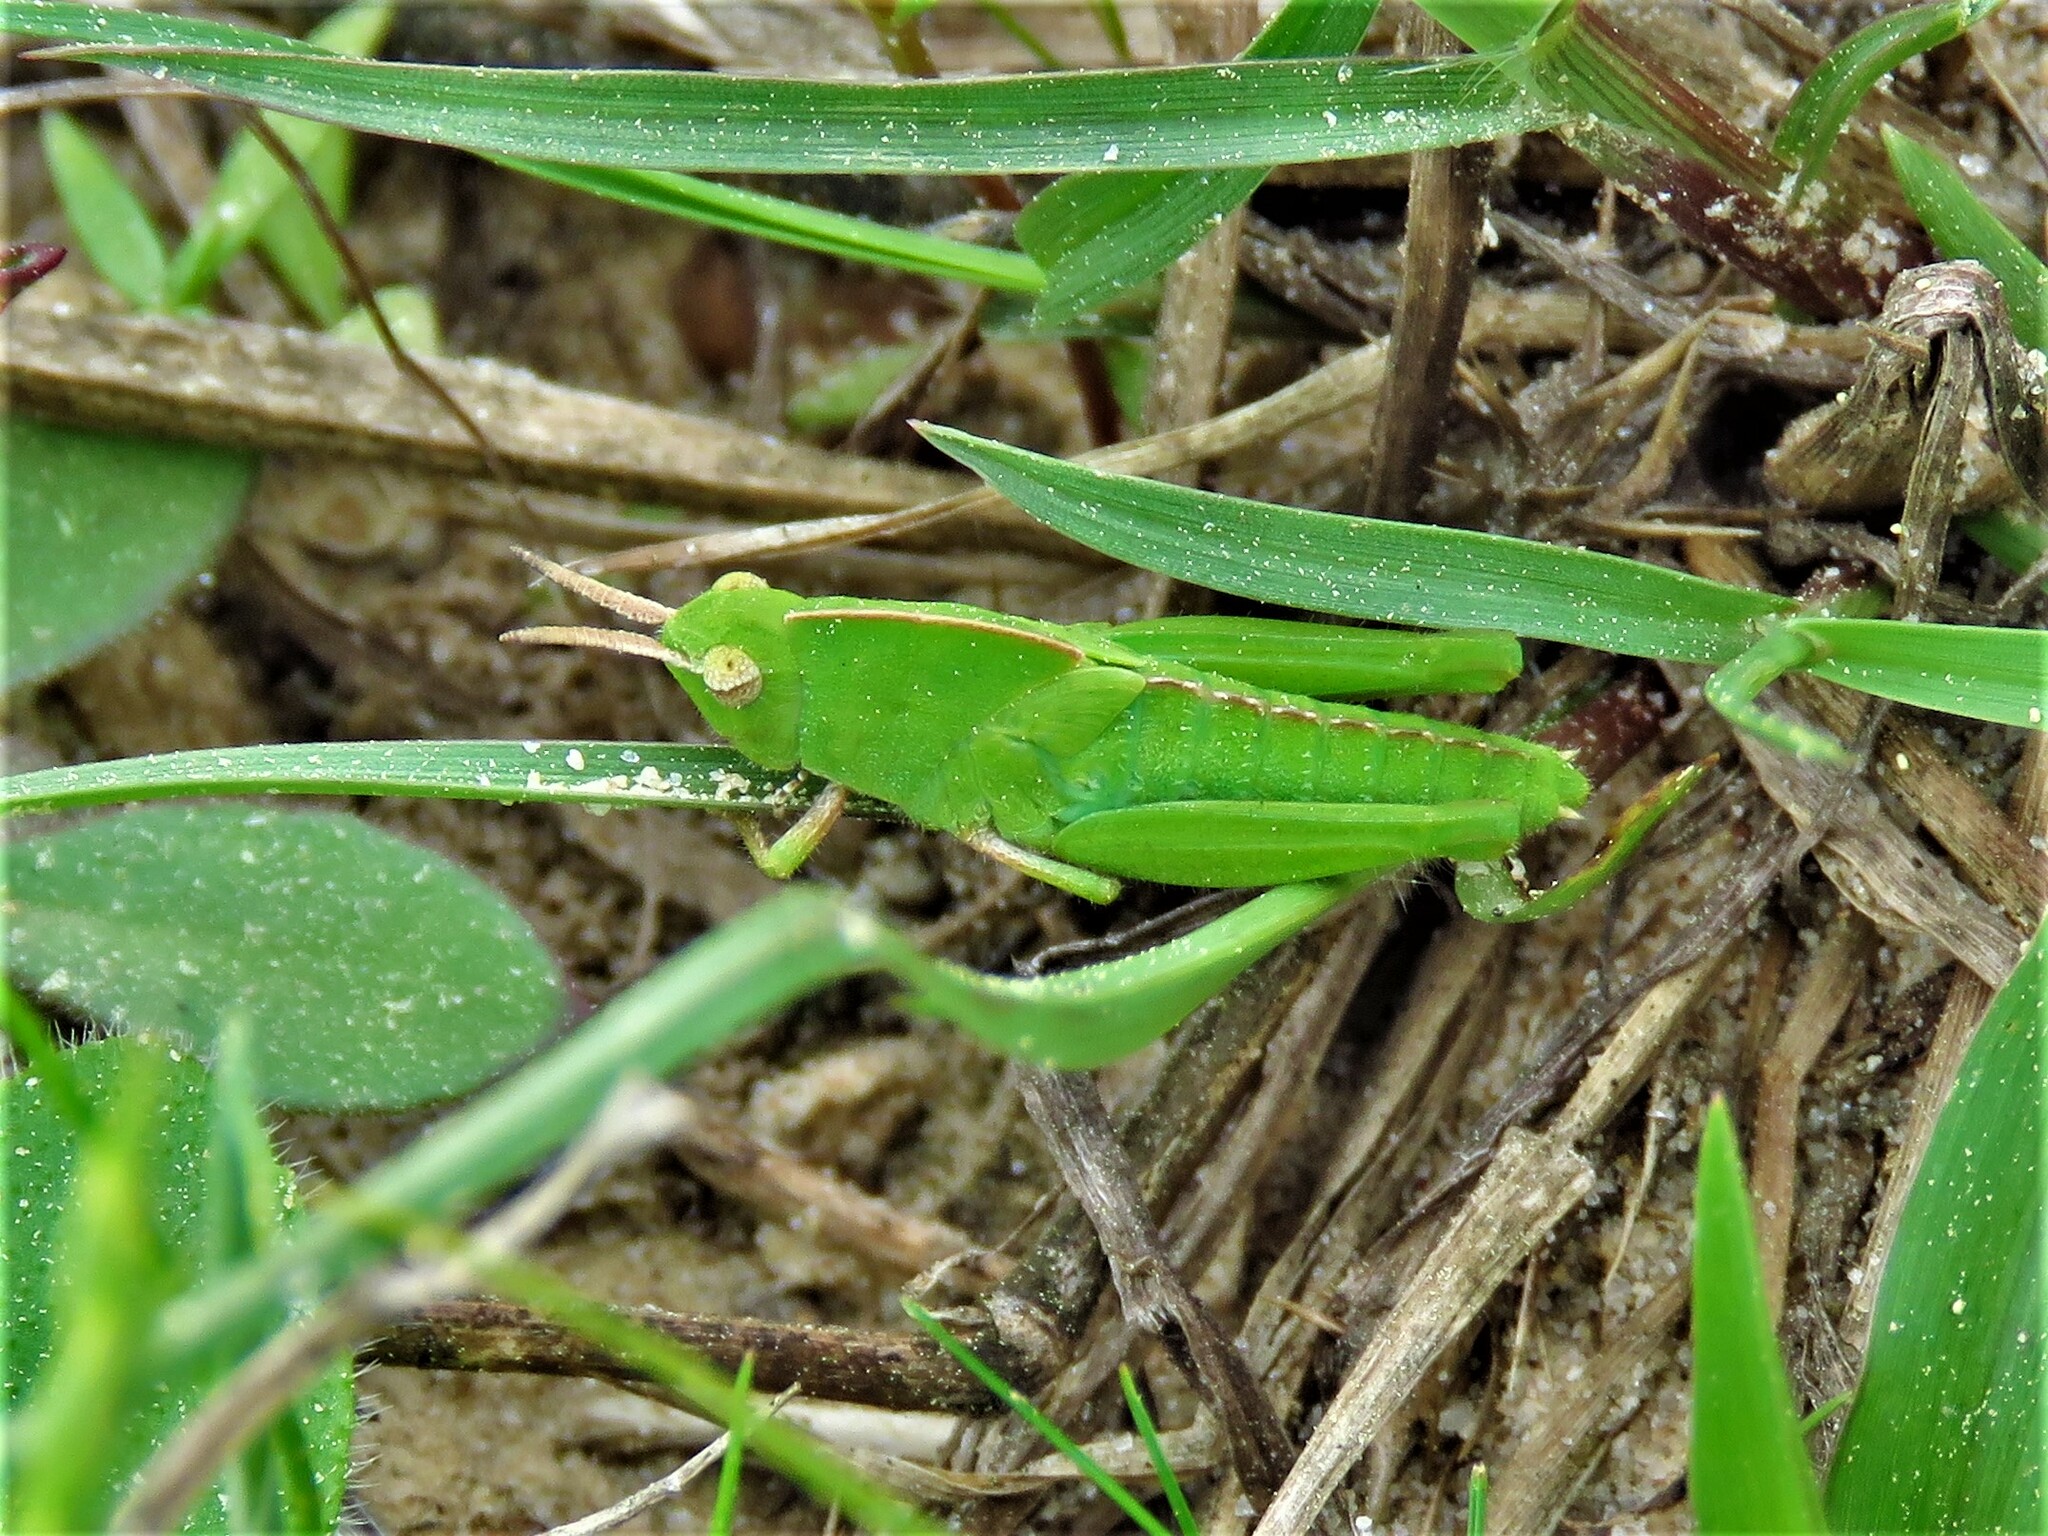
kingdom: Animalia
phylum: Arthropoda
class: Insecta
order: Orthoptera
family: Acrididae
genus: Chortophaga
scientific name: Chortophaga viridifasciata
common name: Green-striped grasshopper
